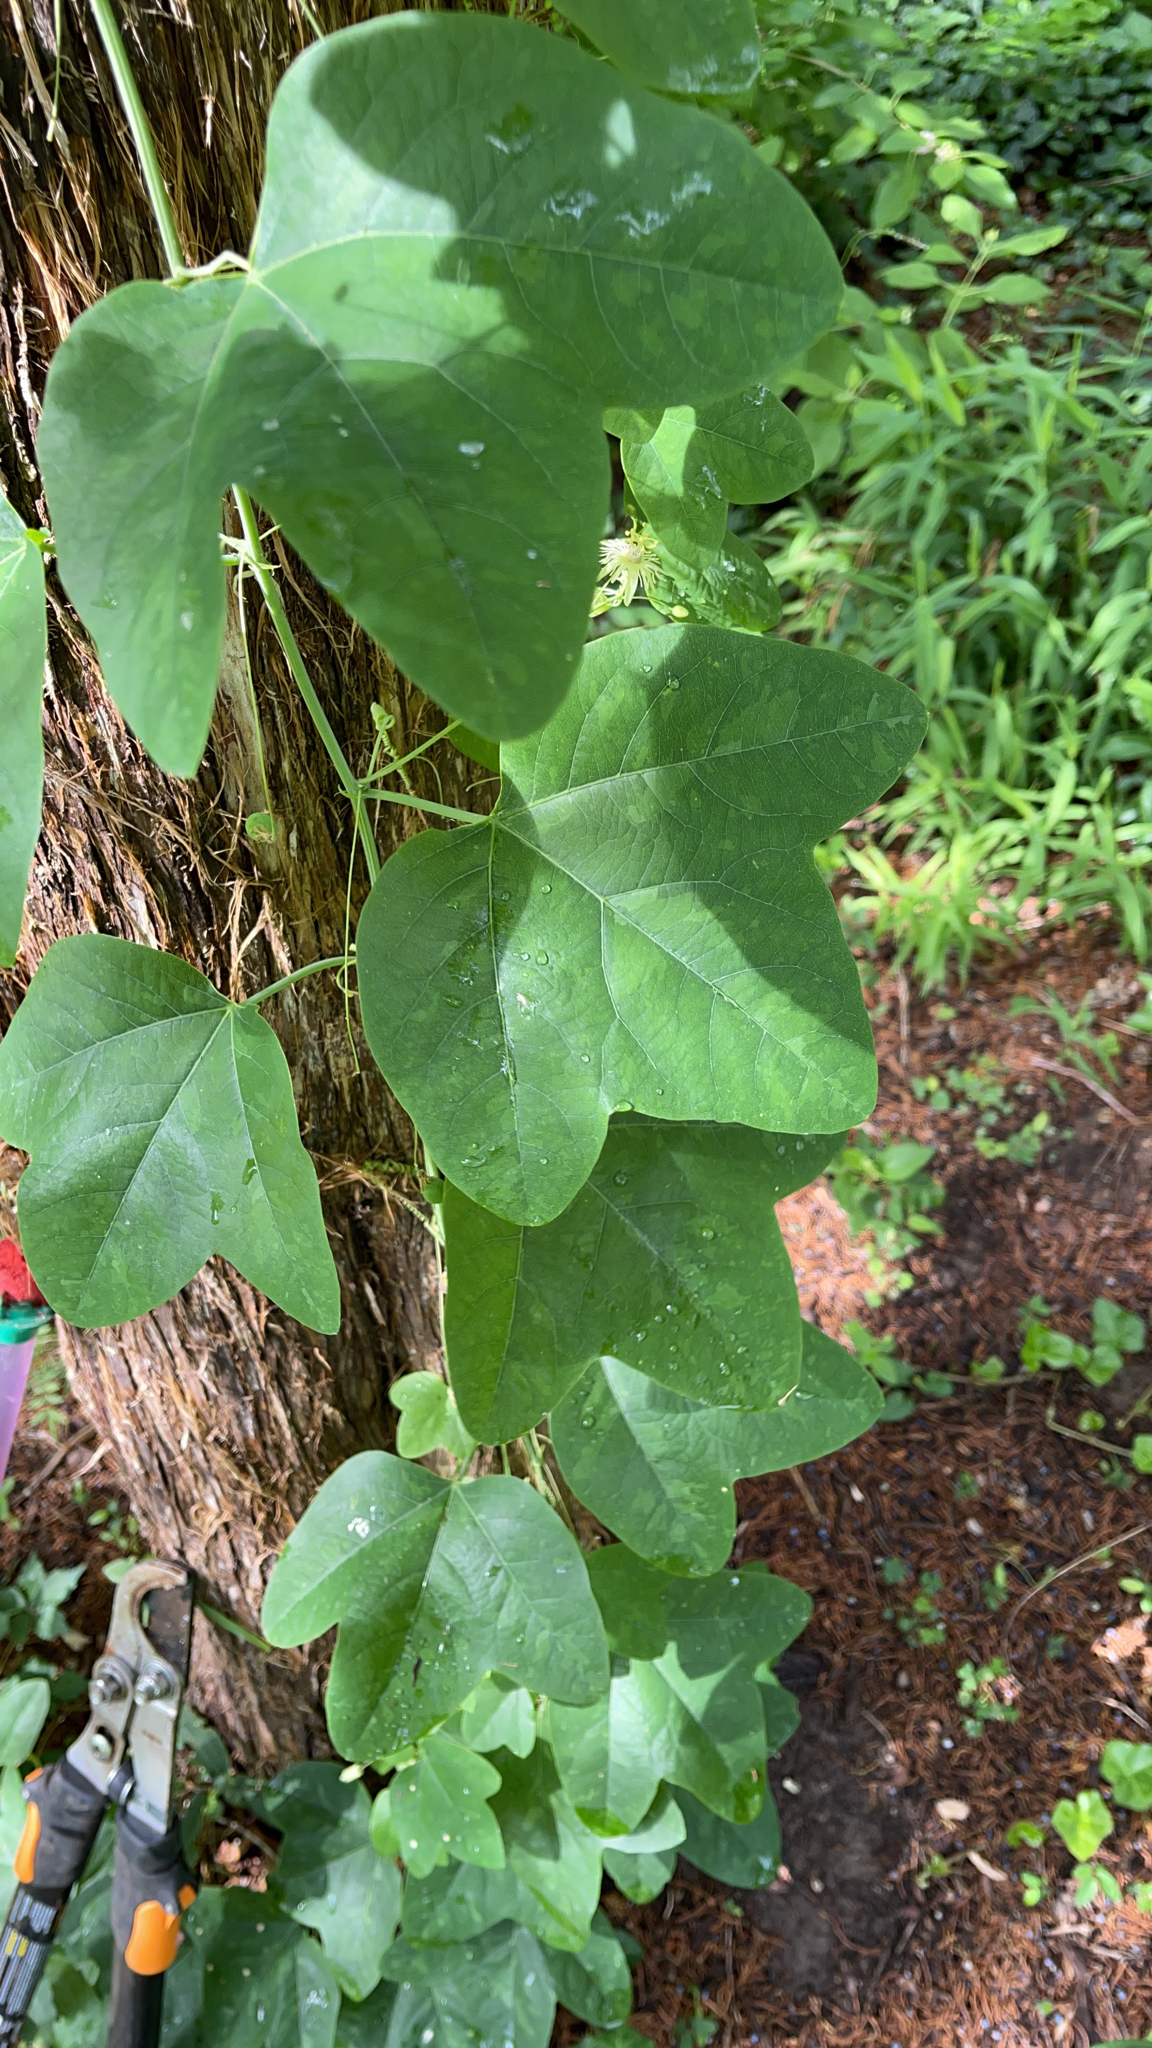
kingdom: Plantae
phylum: Tracheophyta
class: Magnoliopsida
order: Malpighiales
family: Passifloraceae
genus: Passiflora
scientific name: Passiflora lutea
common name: Yellow passionflower
